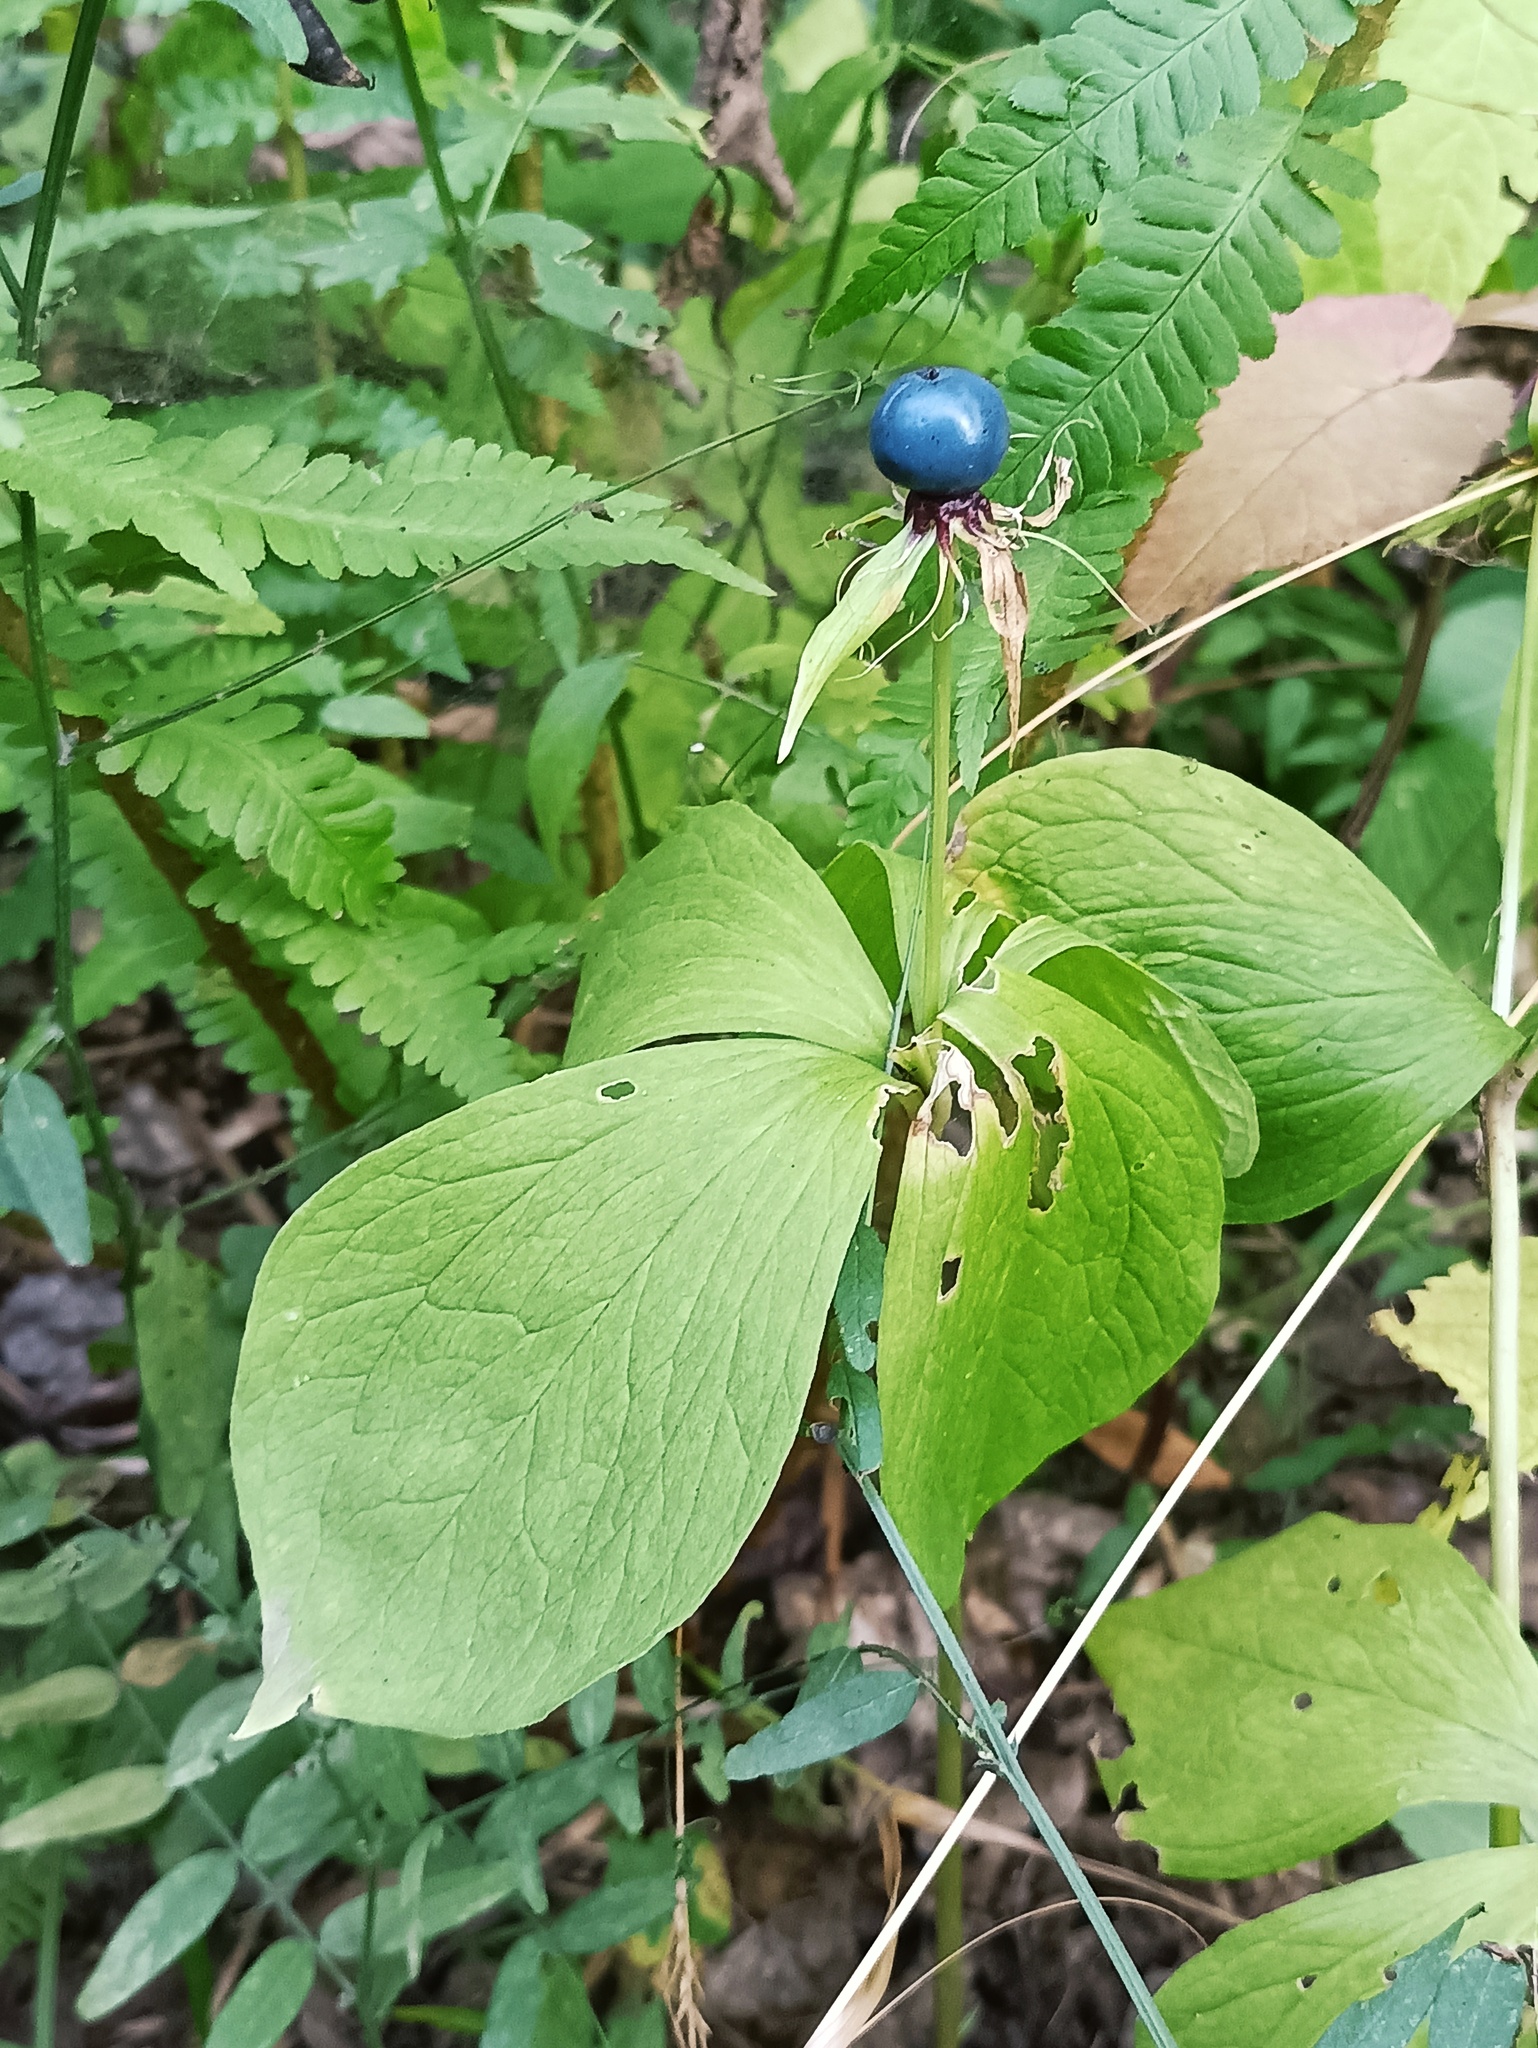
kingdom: Plantae
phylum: Tracheophyta
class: Liliopsida
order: Liliales
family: Melanthiaceae
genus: Paris
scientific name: Paris quadrifolia
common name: Herb-paris
